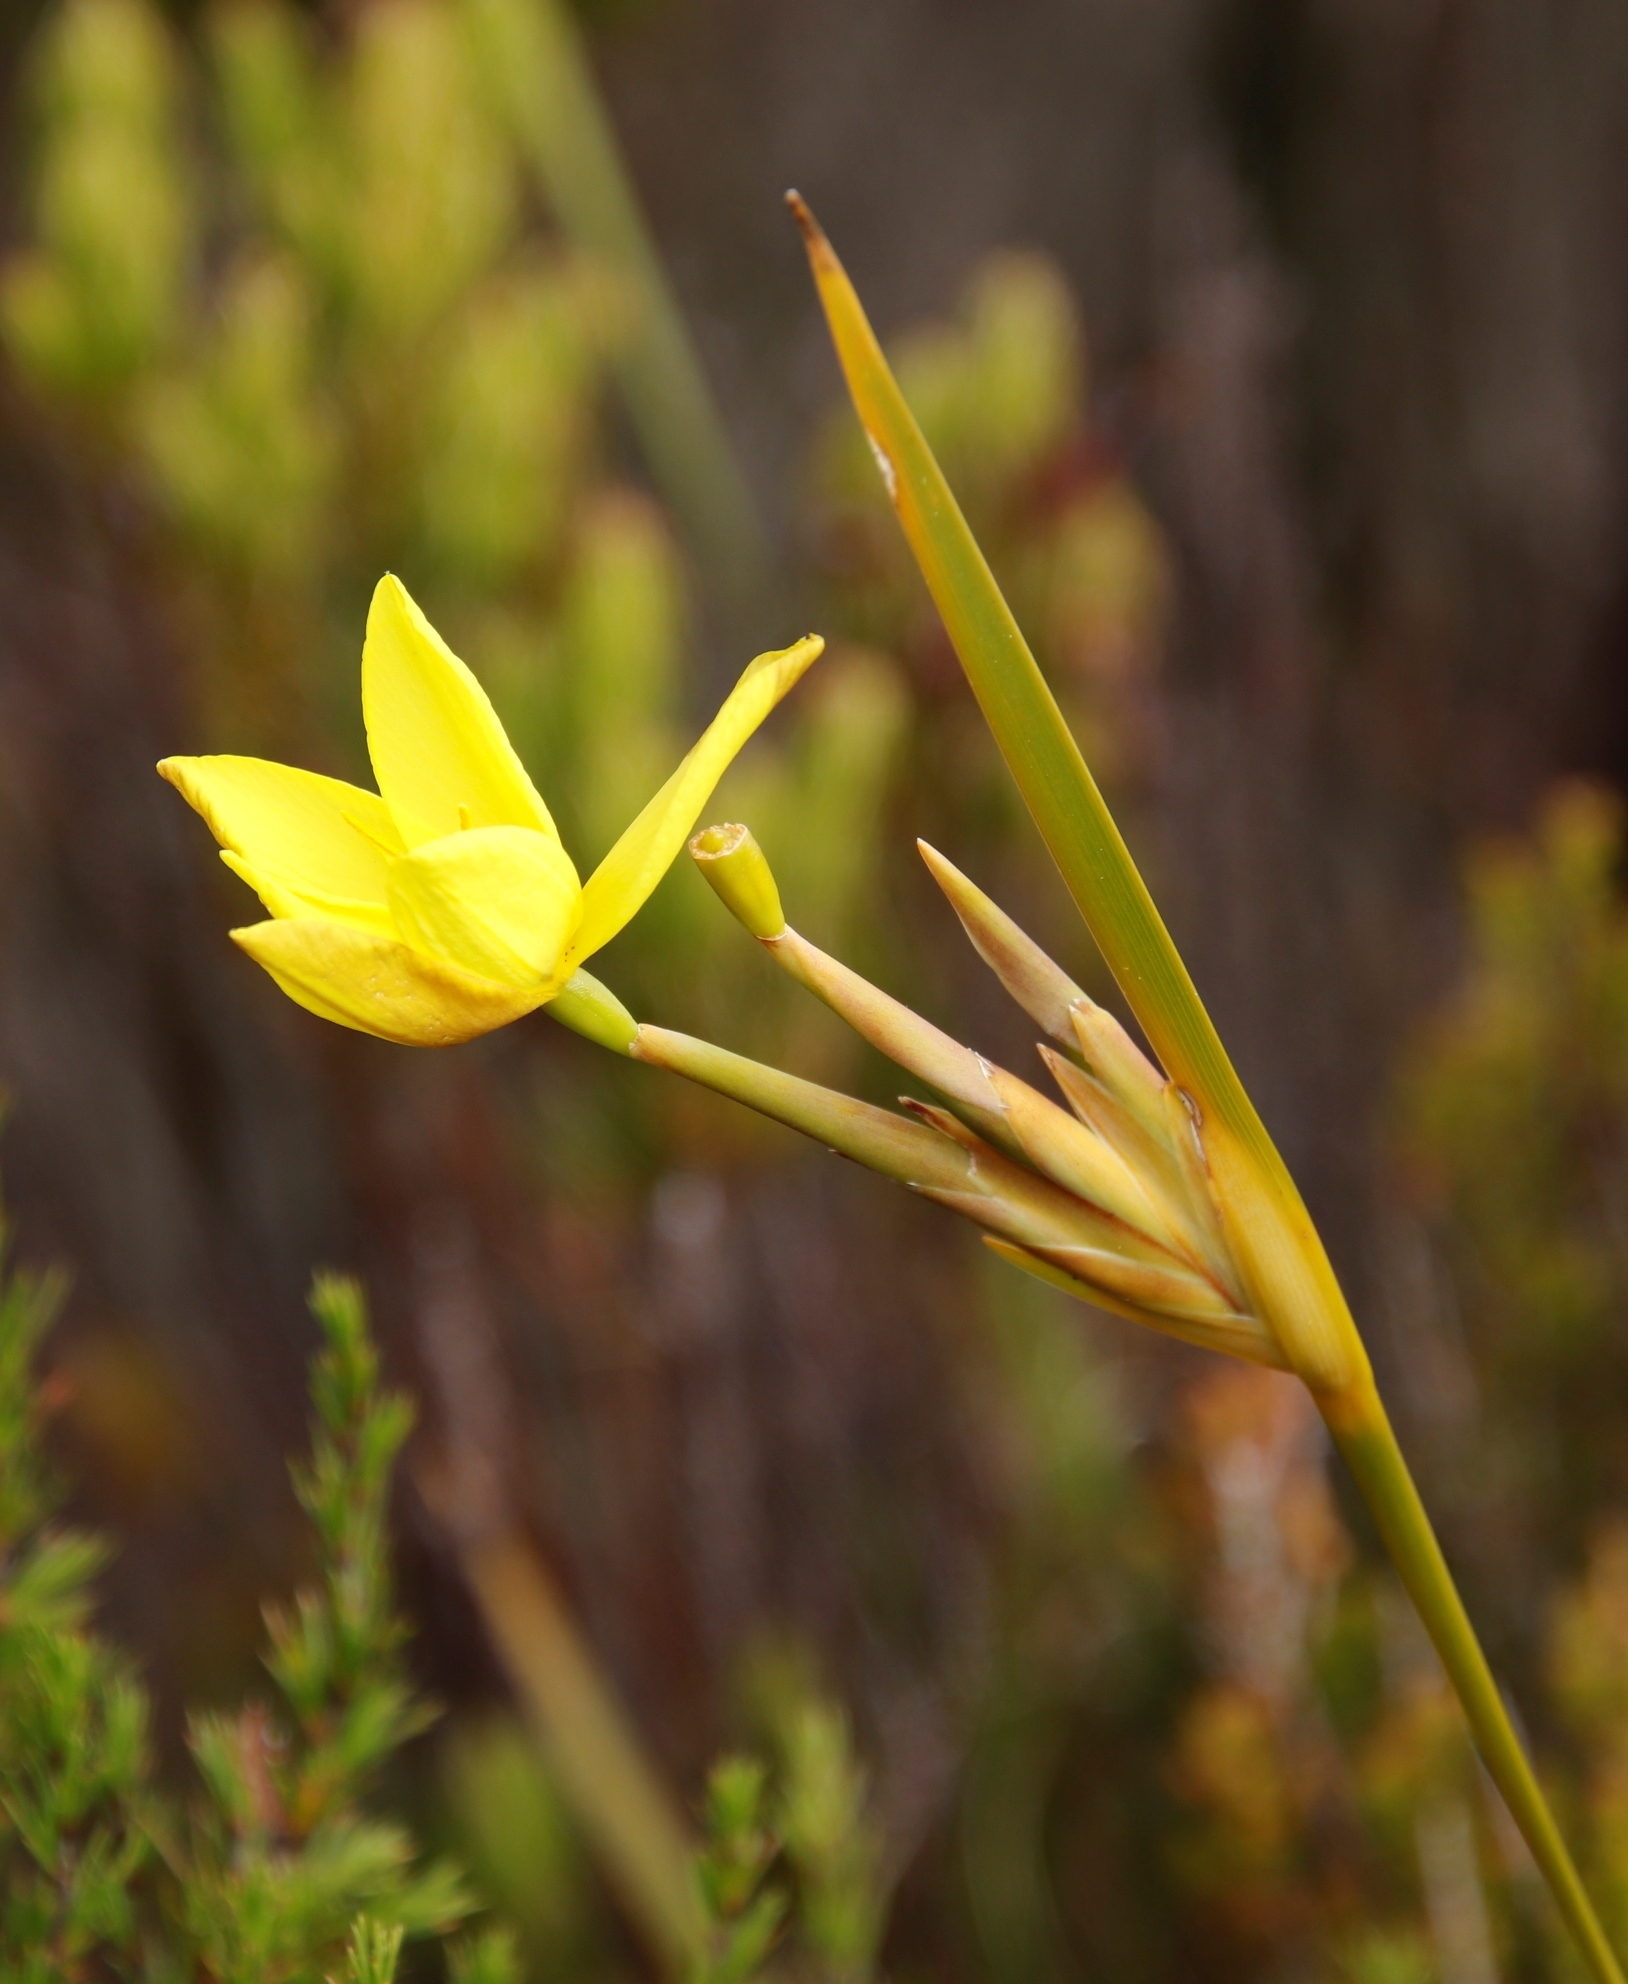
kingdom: Plantae
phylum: Tracheophyta
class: Liliopsida
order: Asparagales
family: Iridaceae
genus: Bobartia
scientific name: Bobartia gladiata
